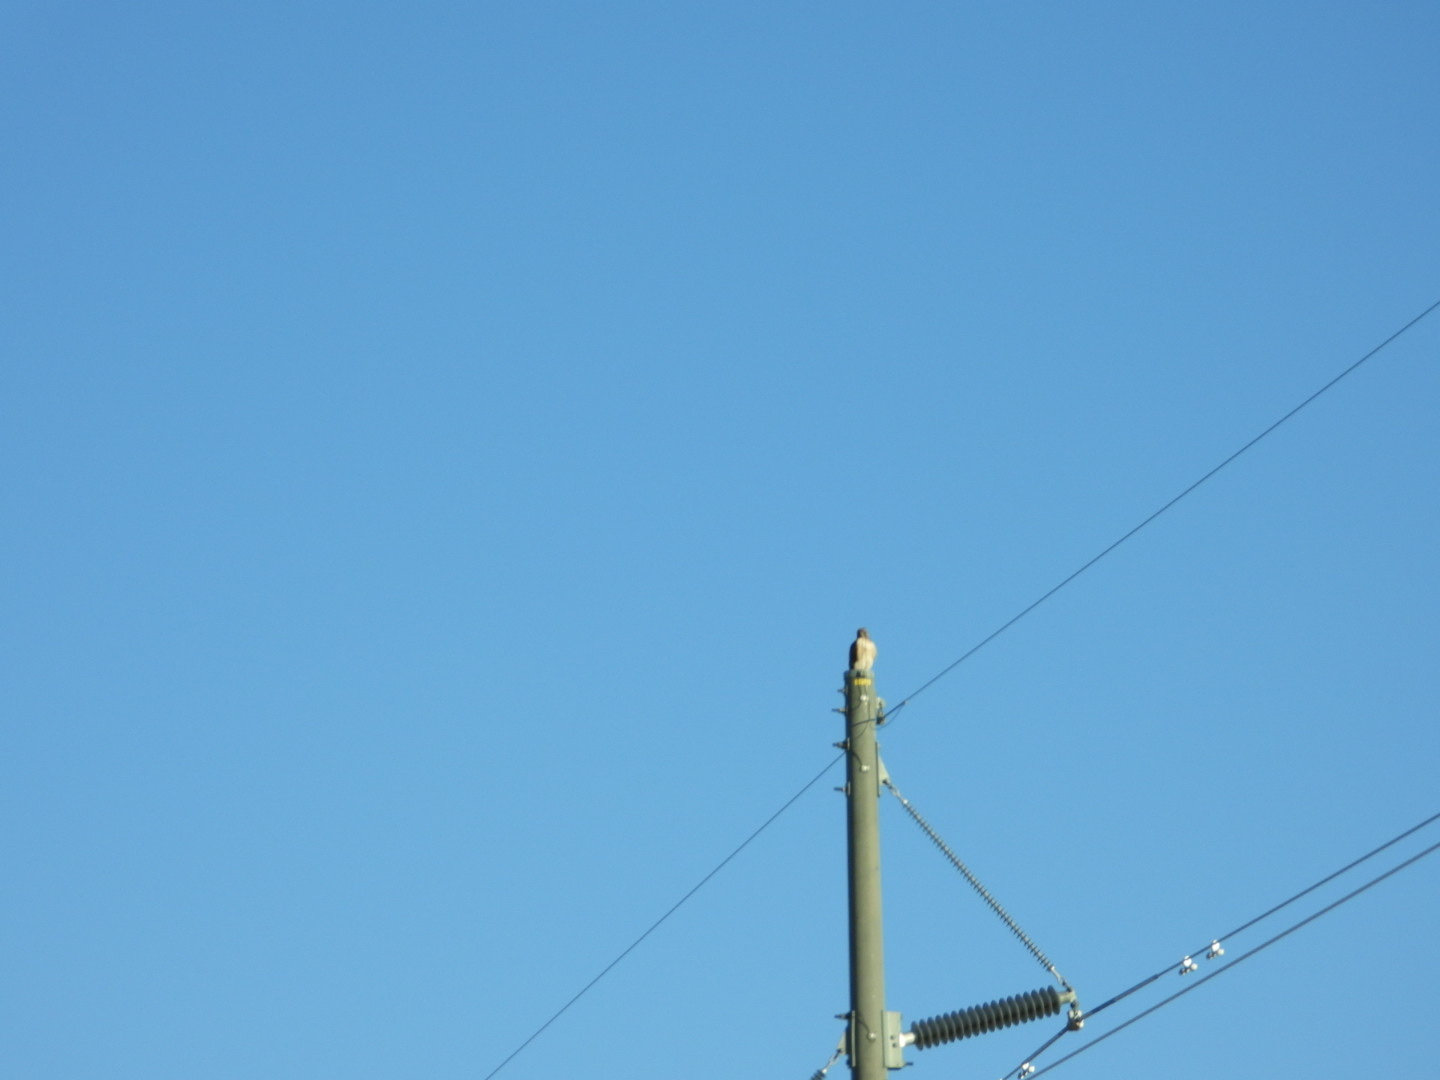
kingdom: Animalia
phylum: Chordata
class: Aves
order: Accipitriformes
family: Accipitridae
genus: Buteo
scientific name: Buteo jamaicensis
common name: Red-tailed hawk
